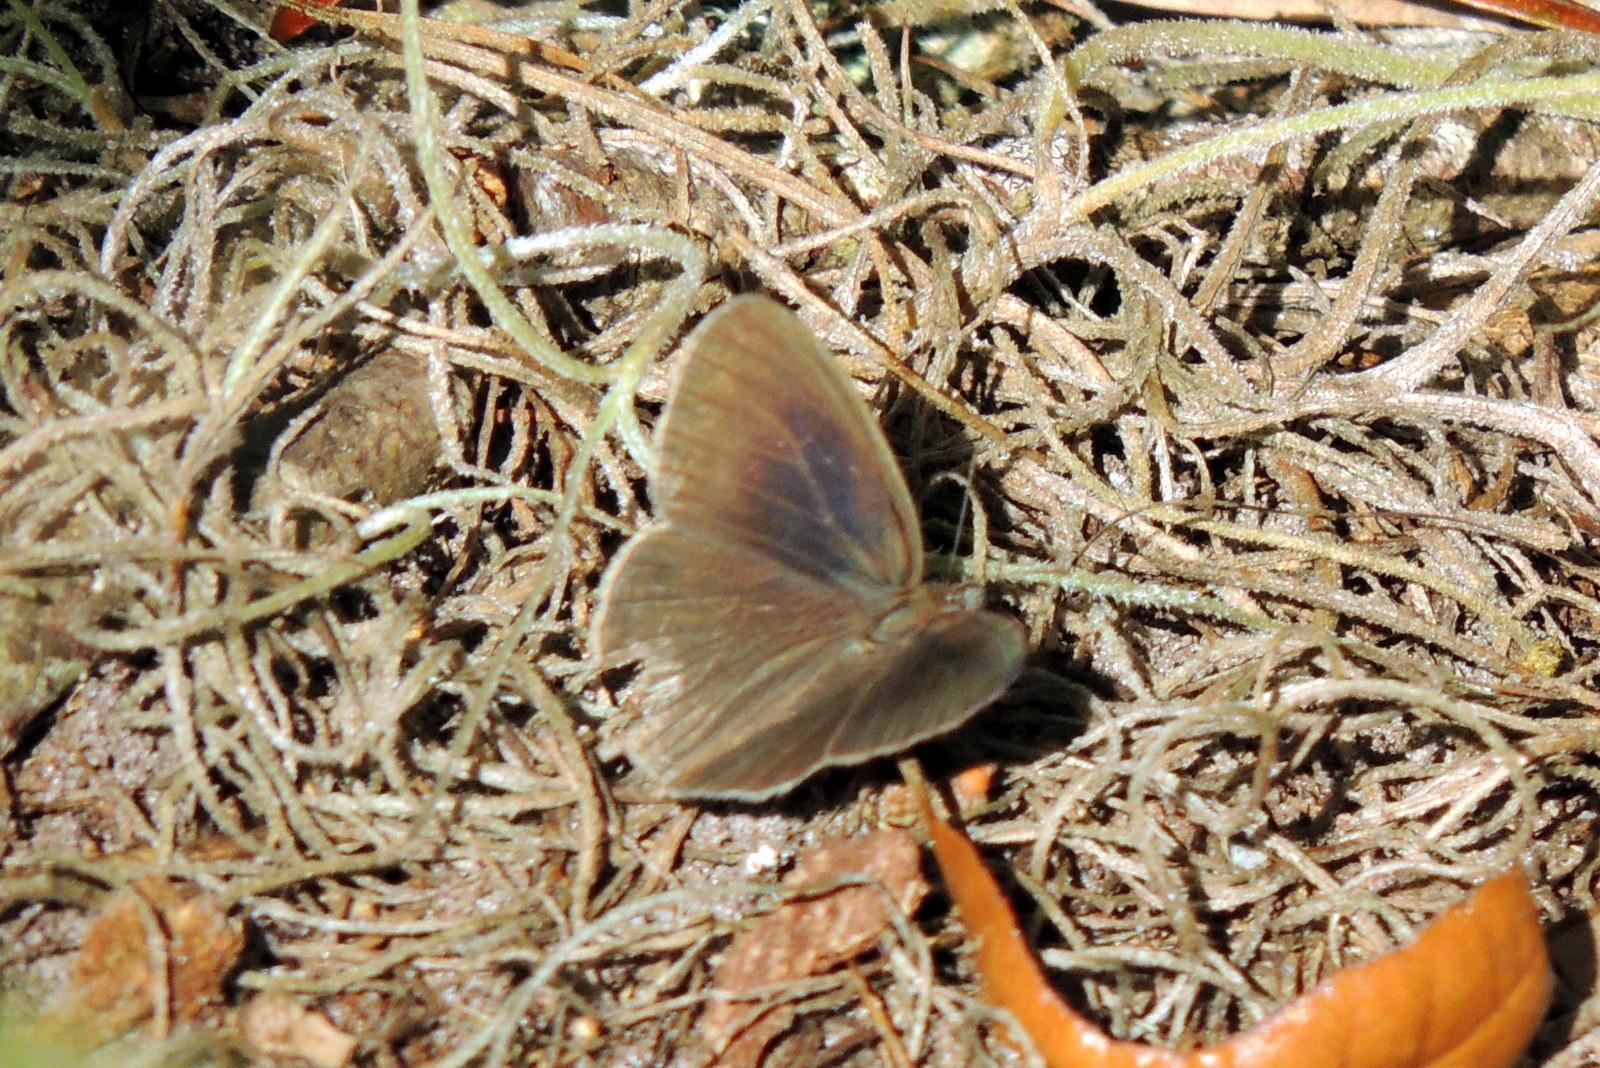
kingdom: Animalia
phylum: Arthropoda
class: Insecta
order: Lepidoptera
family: Nymphalidae
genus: Hermeuptychia
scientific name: Hermeuptychia hermes
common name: Hermes satyr
